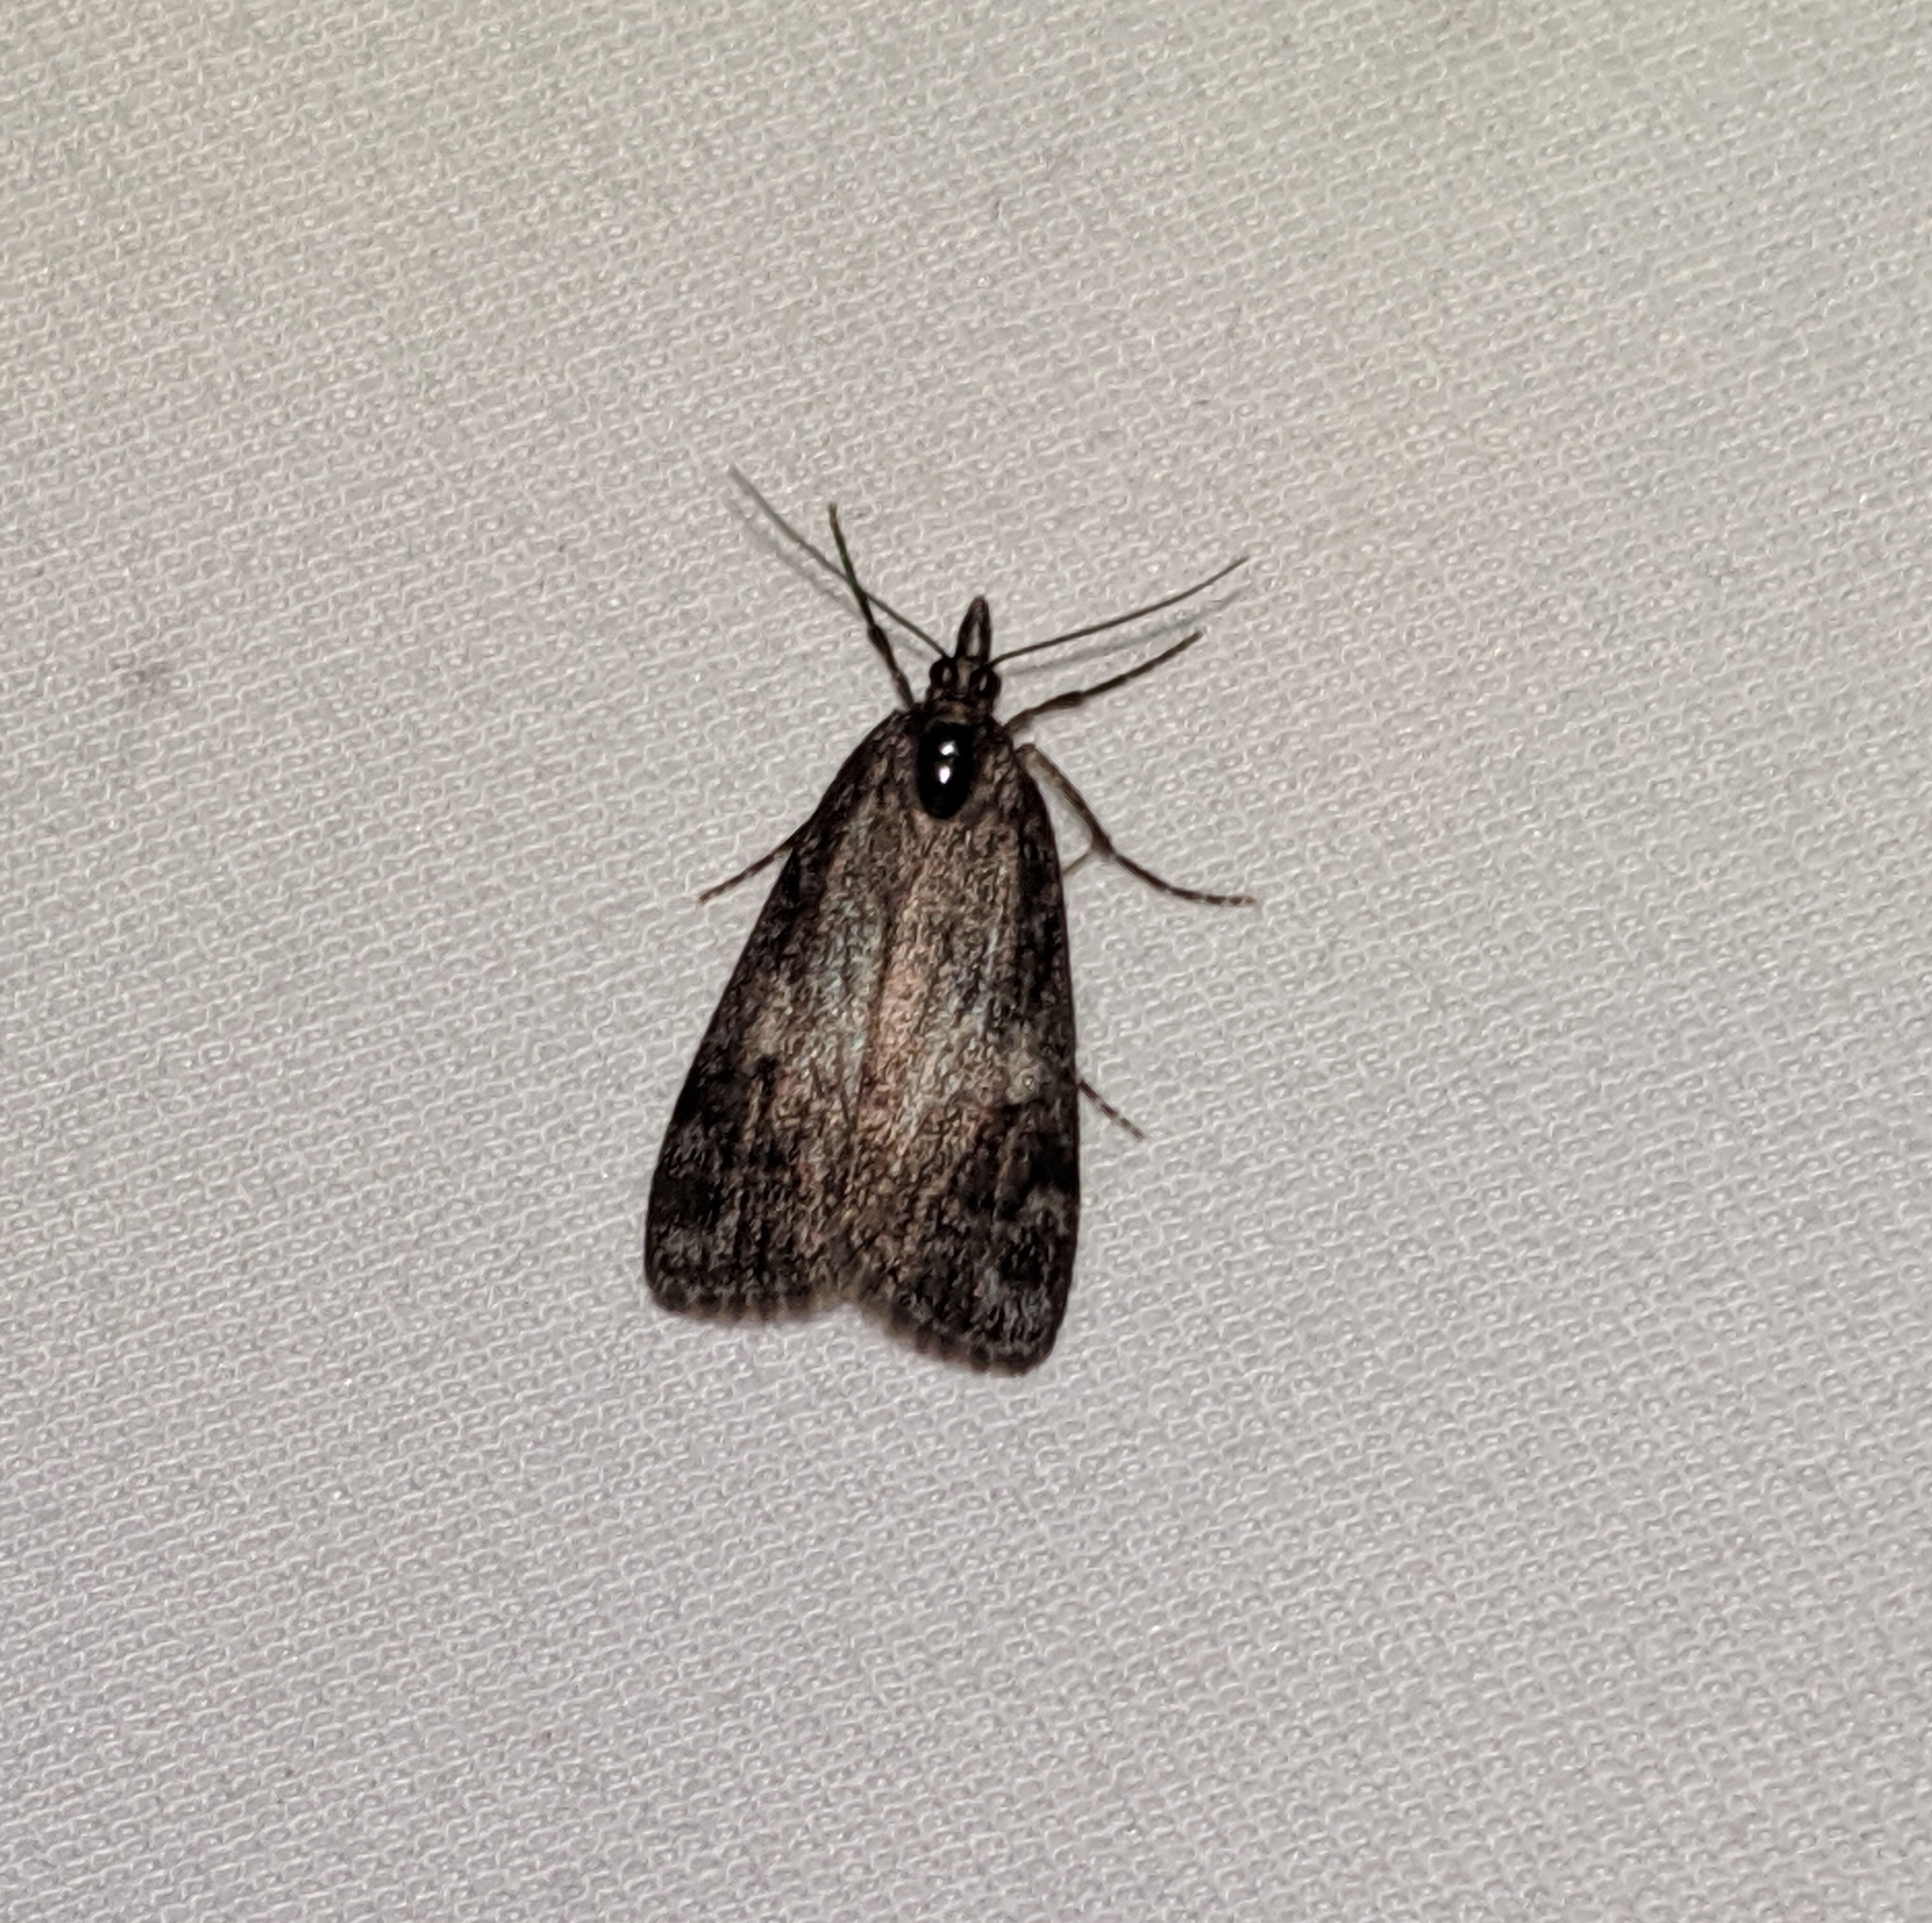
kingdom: Animalia
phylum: Arthropoda
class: Insecta
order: Lepidoptera
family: Crambidae
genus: Gesneria
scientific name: Gesneria centuriella
